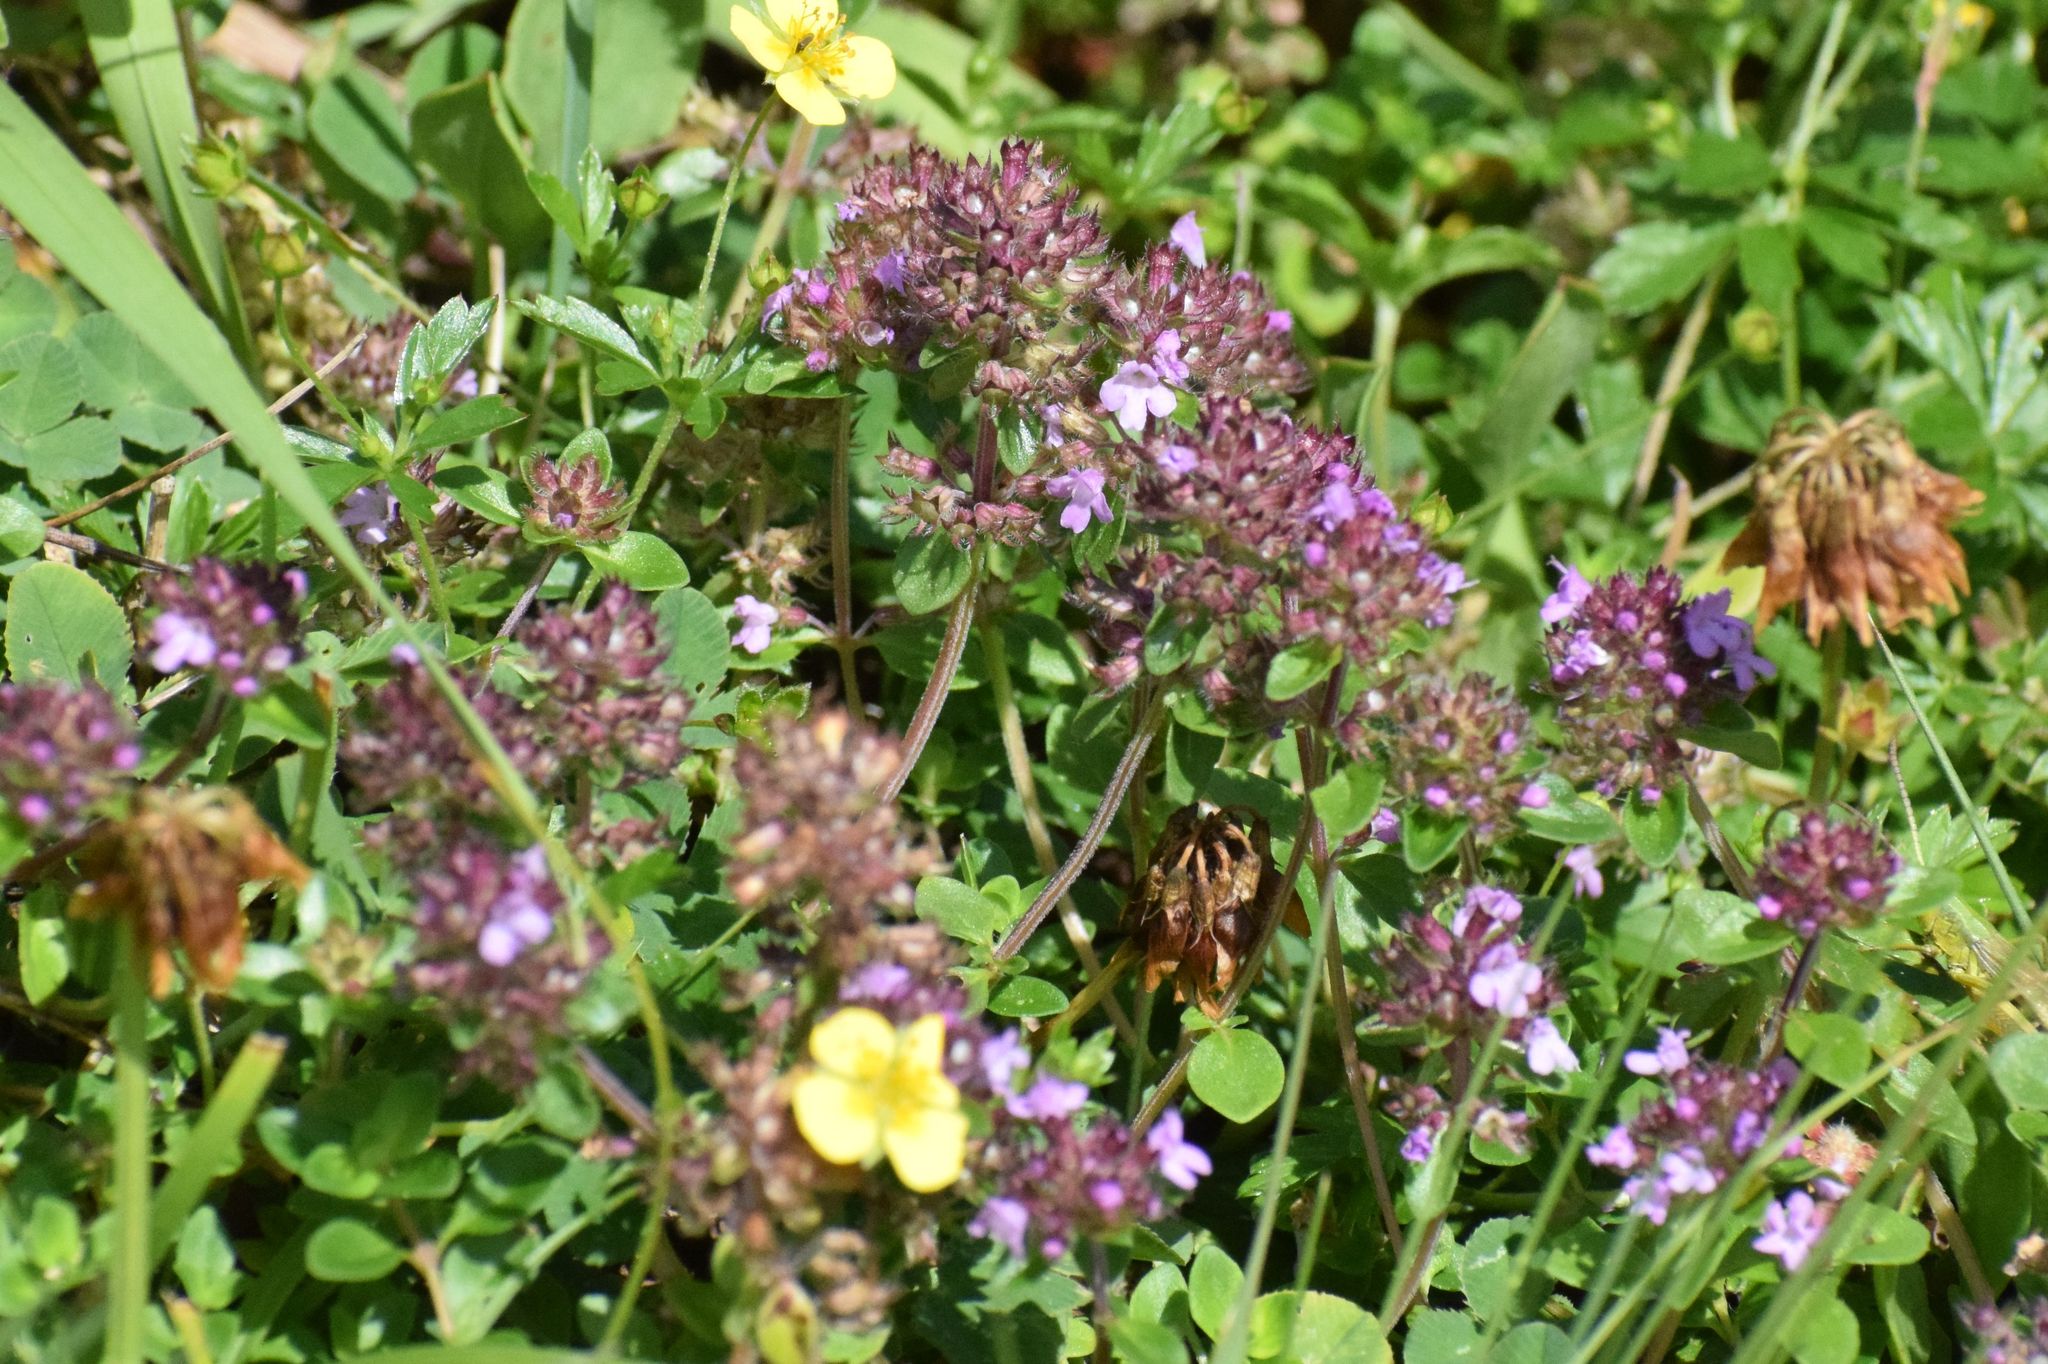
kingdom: Plantae
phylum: Tracheophyta
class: Magnoliopsida
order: Lamiales
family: Lamiaceae
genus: Thymus
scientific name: Thymus pulegioides
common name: Large thyme
